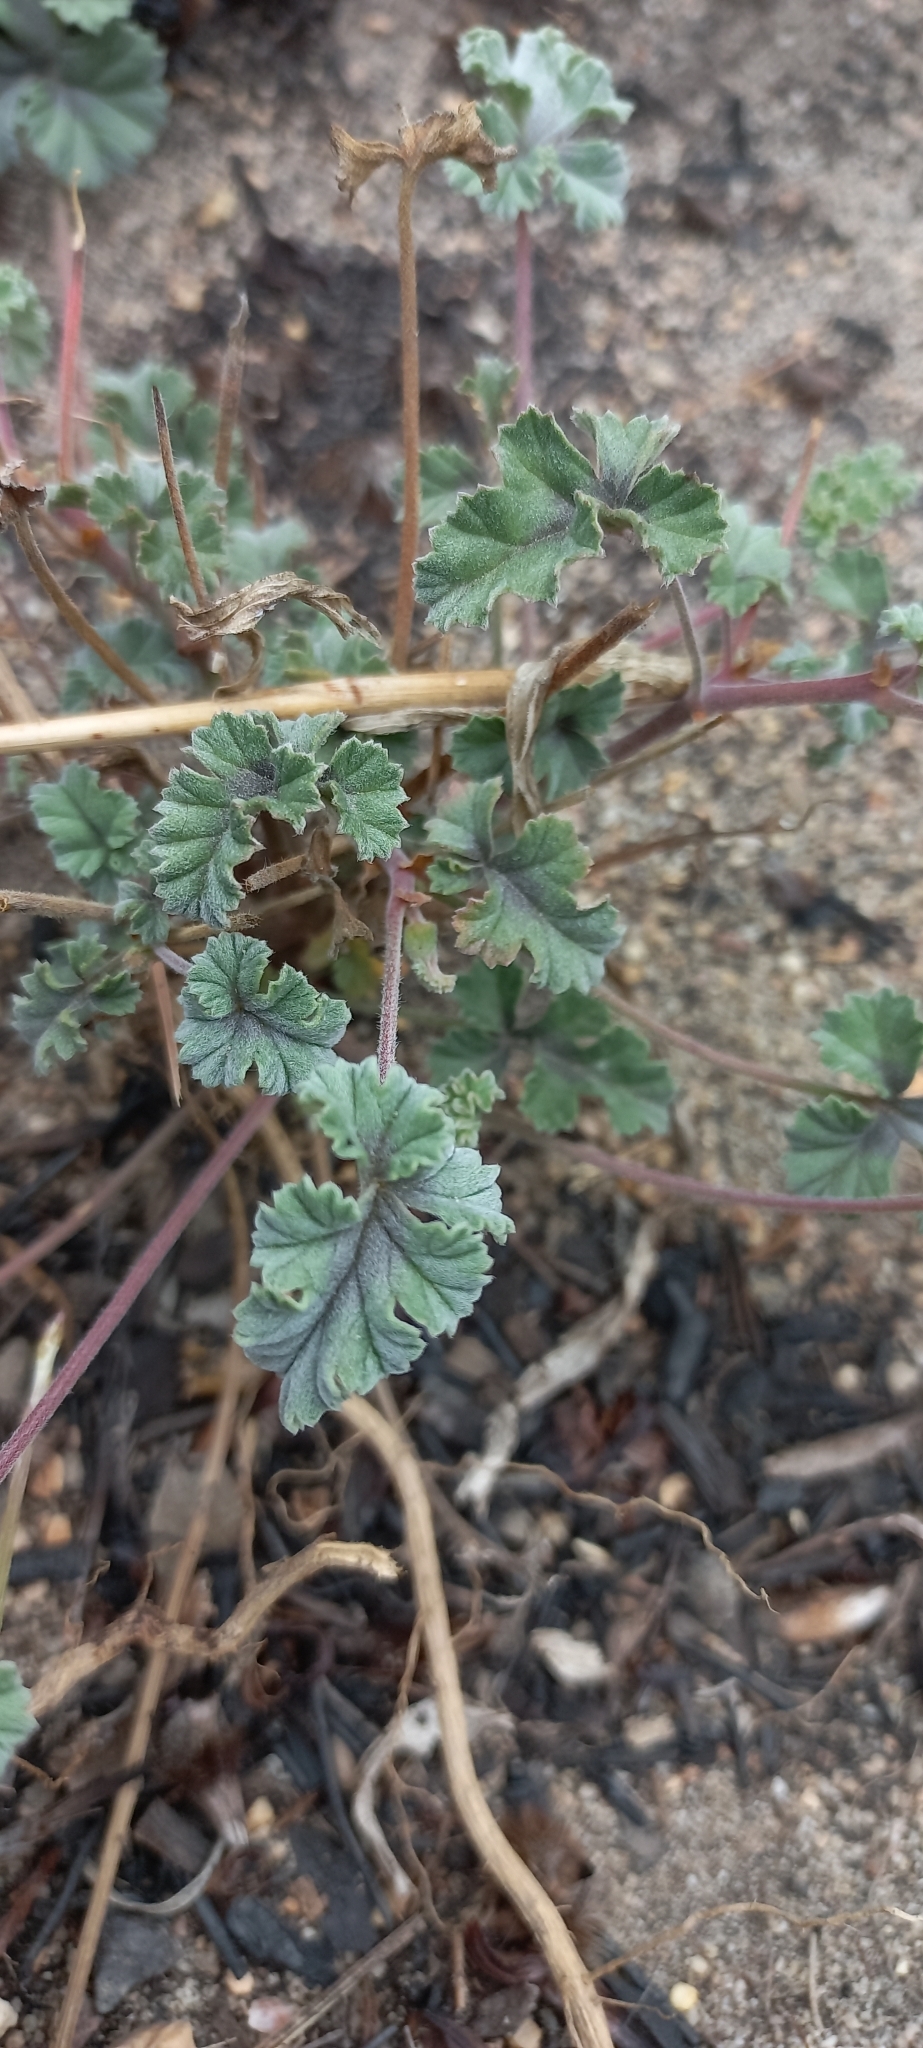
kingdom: Plantae
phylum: Tracheophyta
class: Magnoliopsida
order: Geraniales
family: Geraniaceae
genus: Pelargonium
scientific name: Pelargonium candicans
